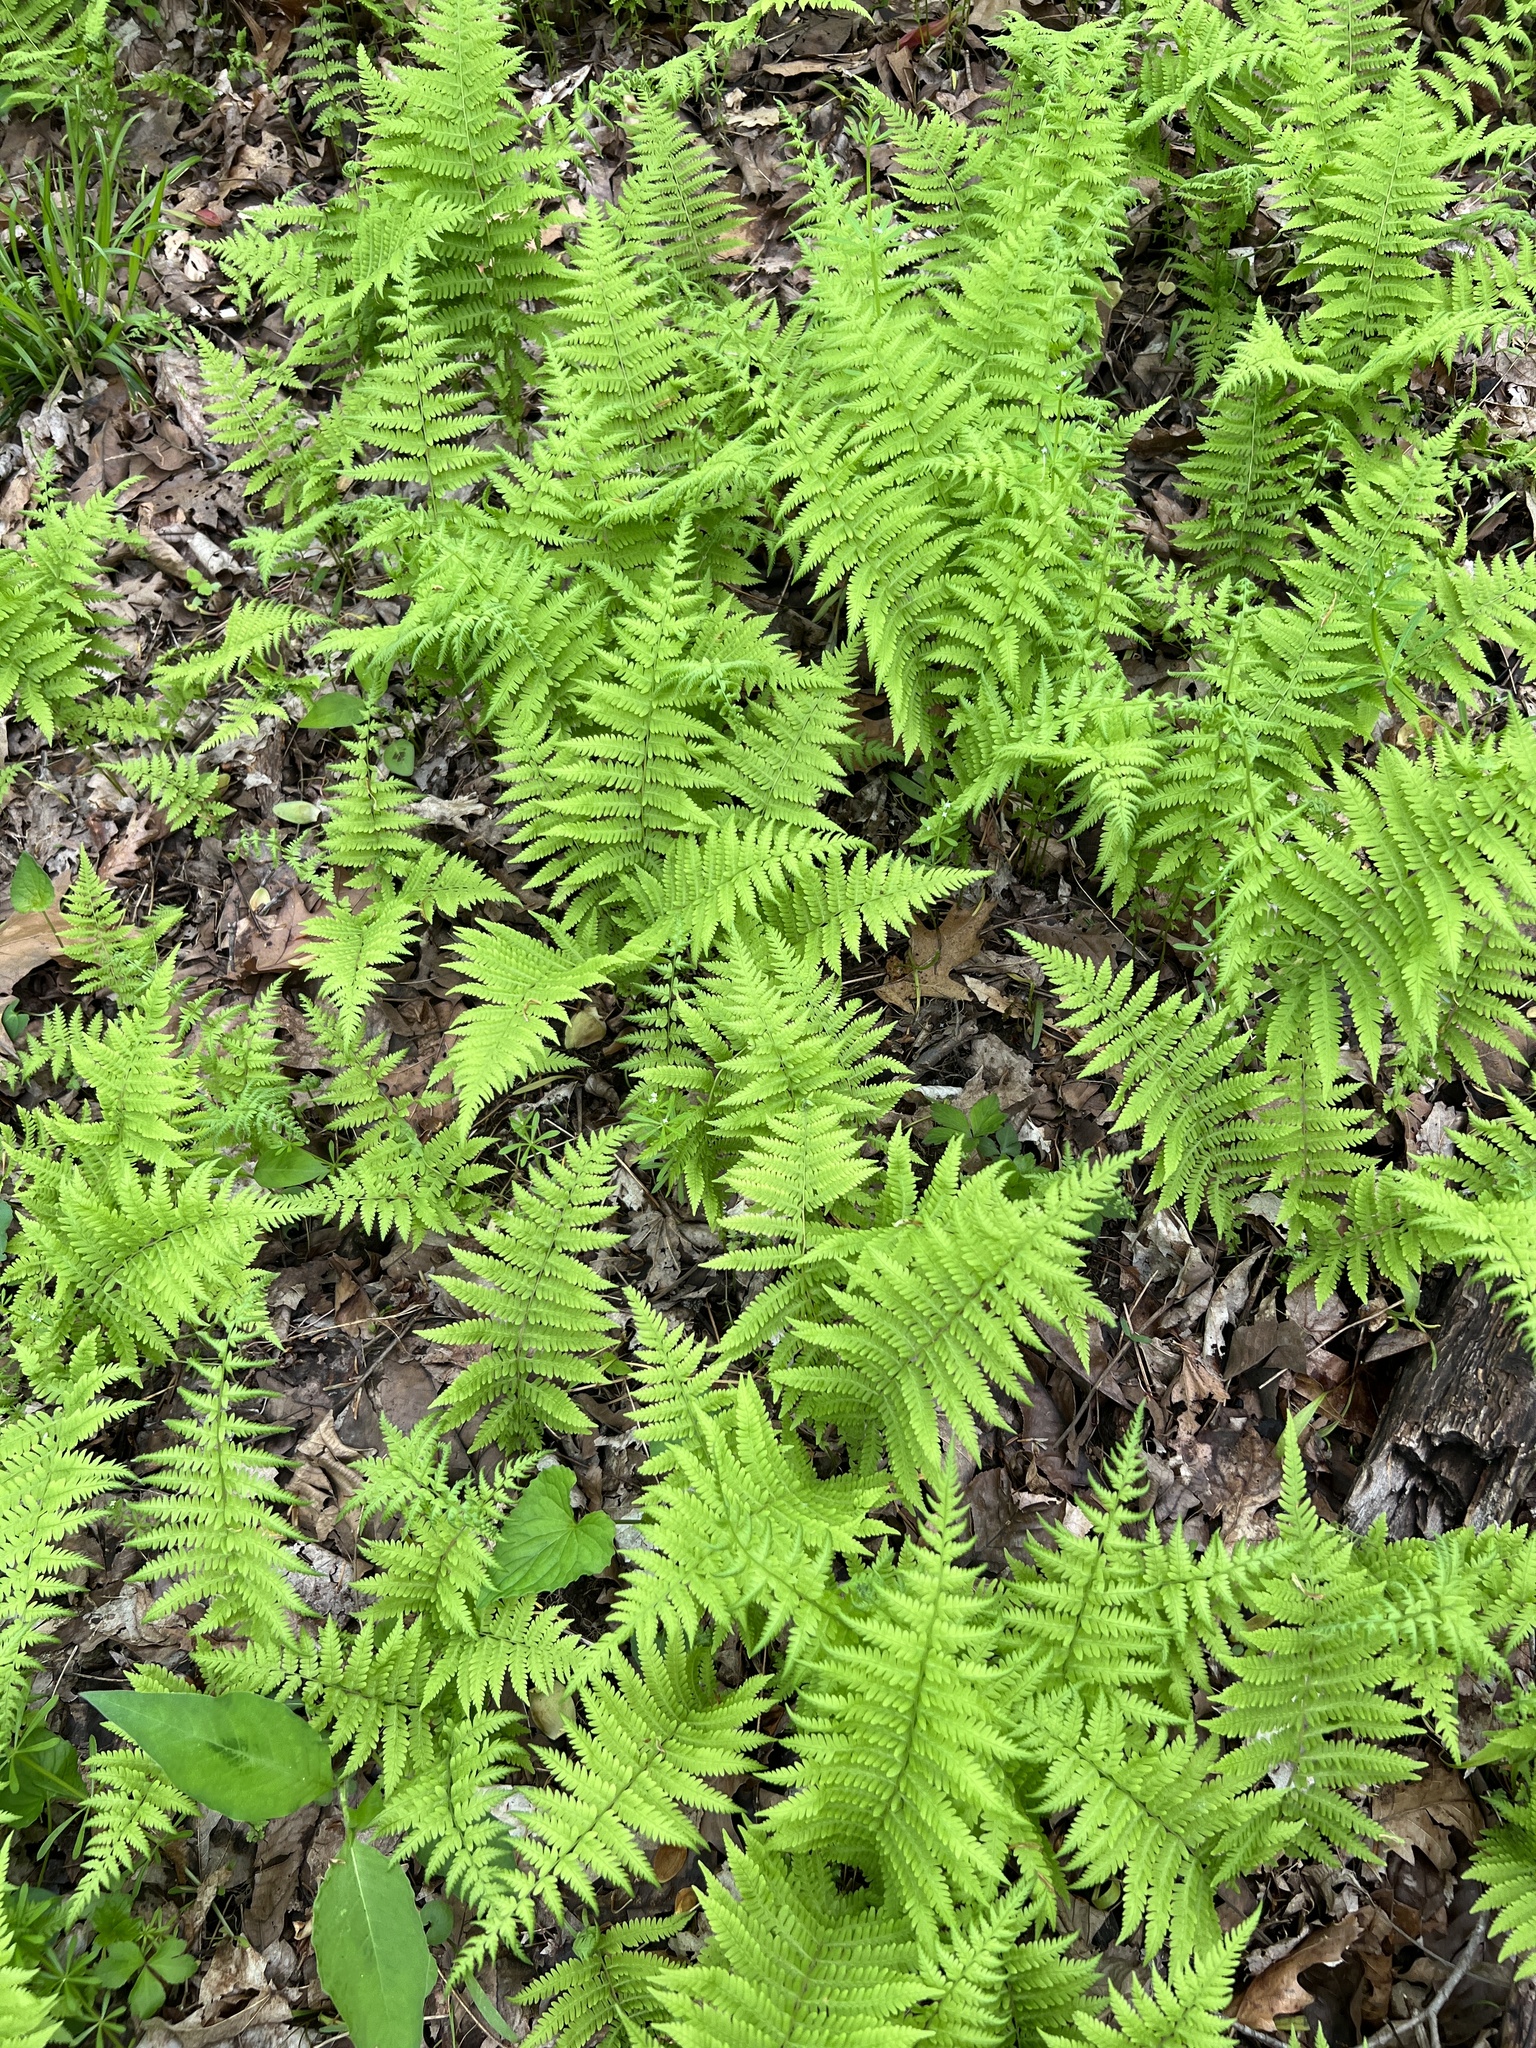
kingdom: Plantae
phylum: Tracheophyta
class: Polypodiopsida
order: Polypodiales
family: Thelypteridaceae
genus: Amauropelta
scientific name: Amauropelta noveboracensis
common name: New york fern
